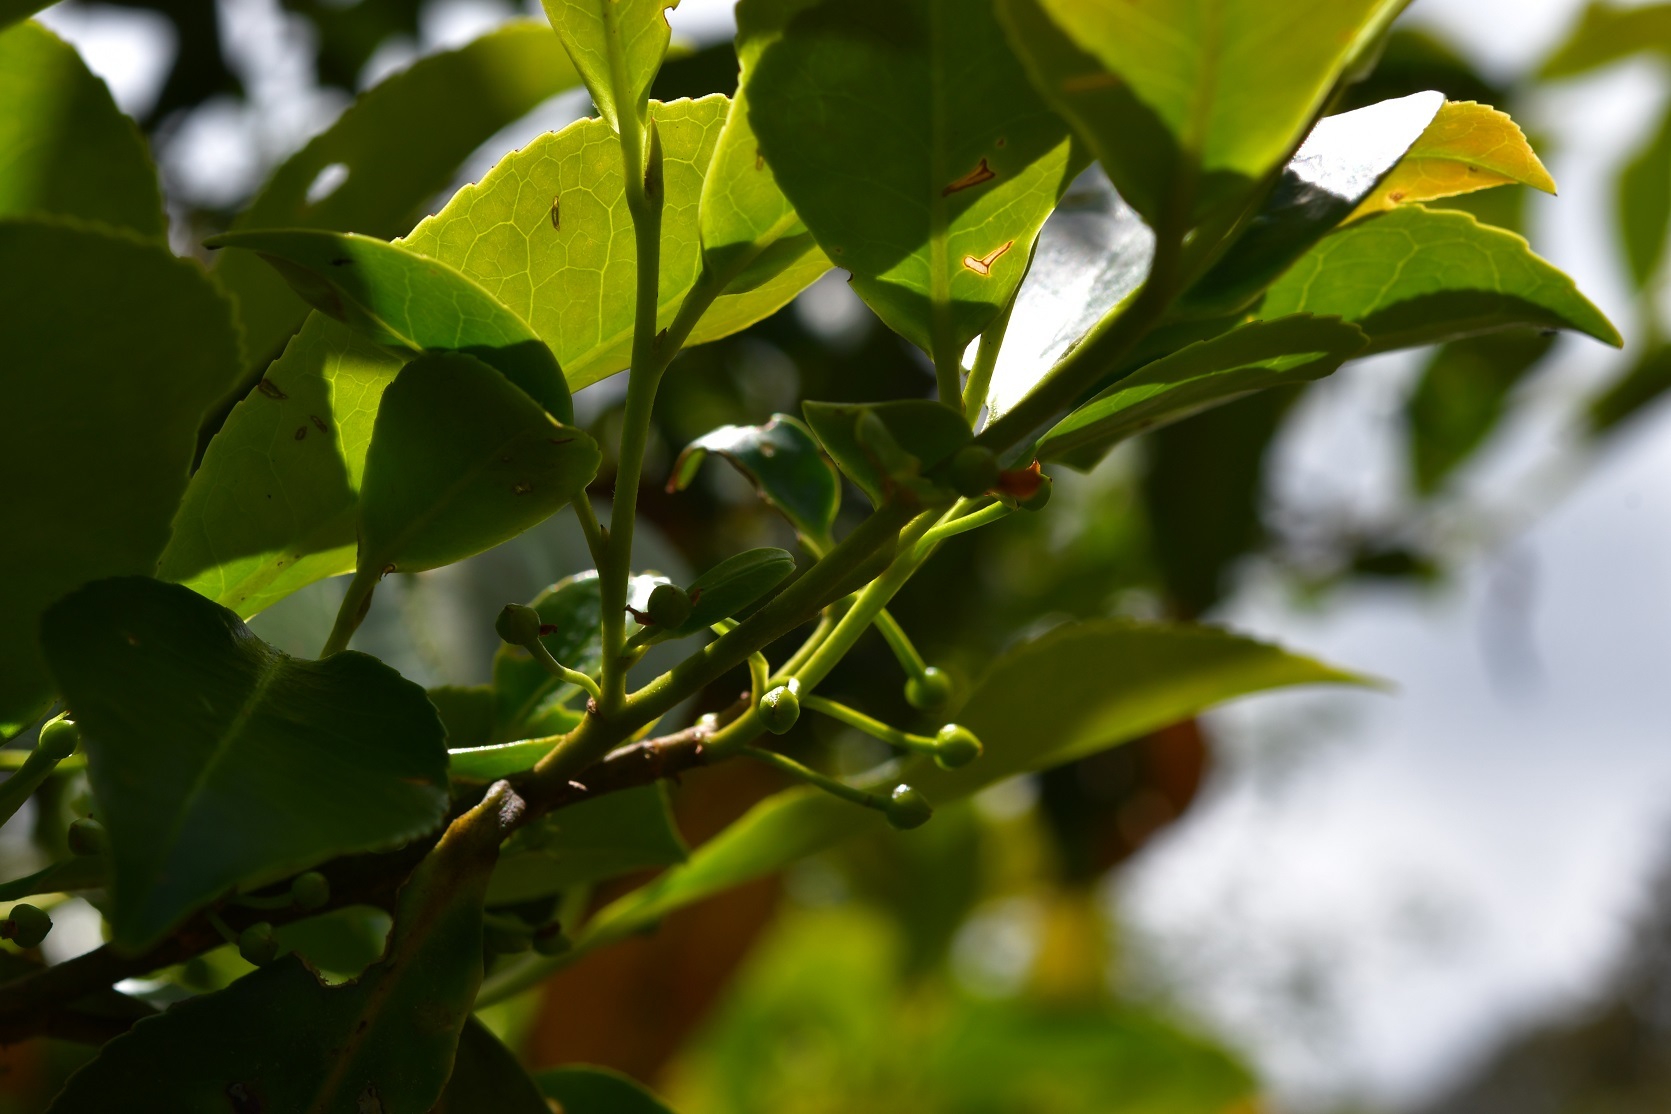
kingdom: Plantae
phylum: Tracheophyta
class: Magnoliopsida
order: Ericales
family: Pentaphylacaceae
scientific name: Pentaphylacaceae
